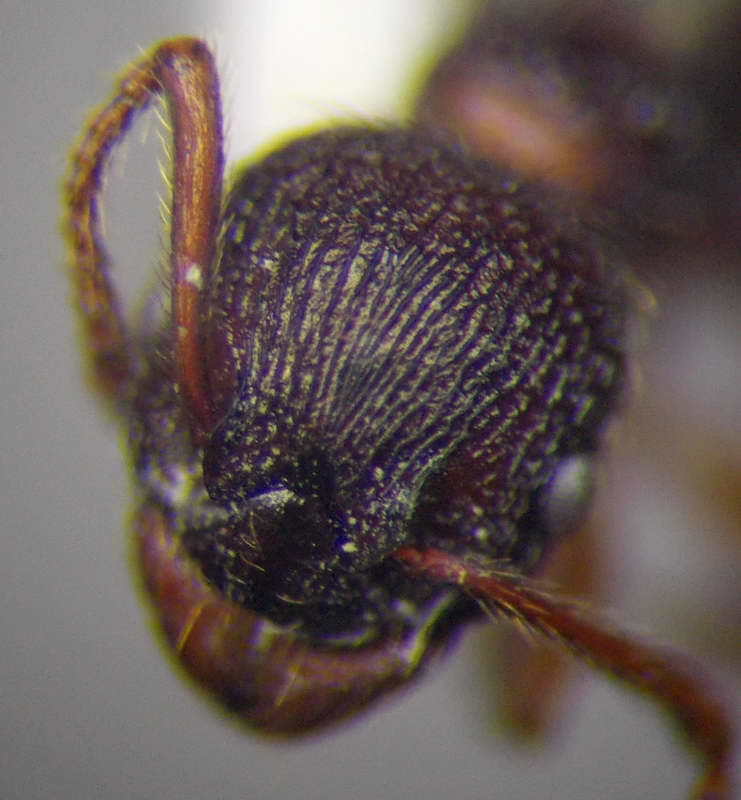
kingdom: Animalia
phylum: Arthropoda
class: Insecta
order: Hymenoptera
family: Formicidae
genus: Myrmica
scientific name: Myrmica bergi
